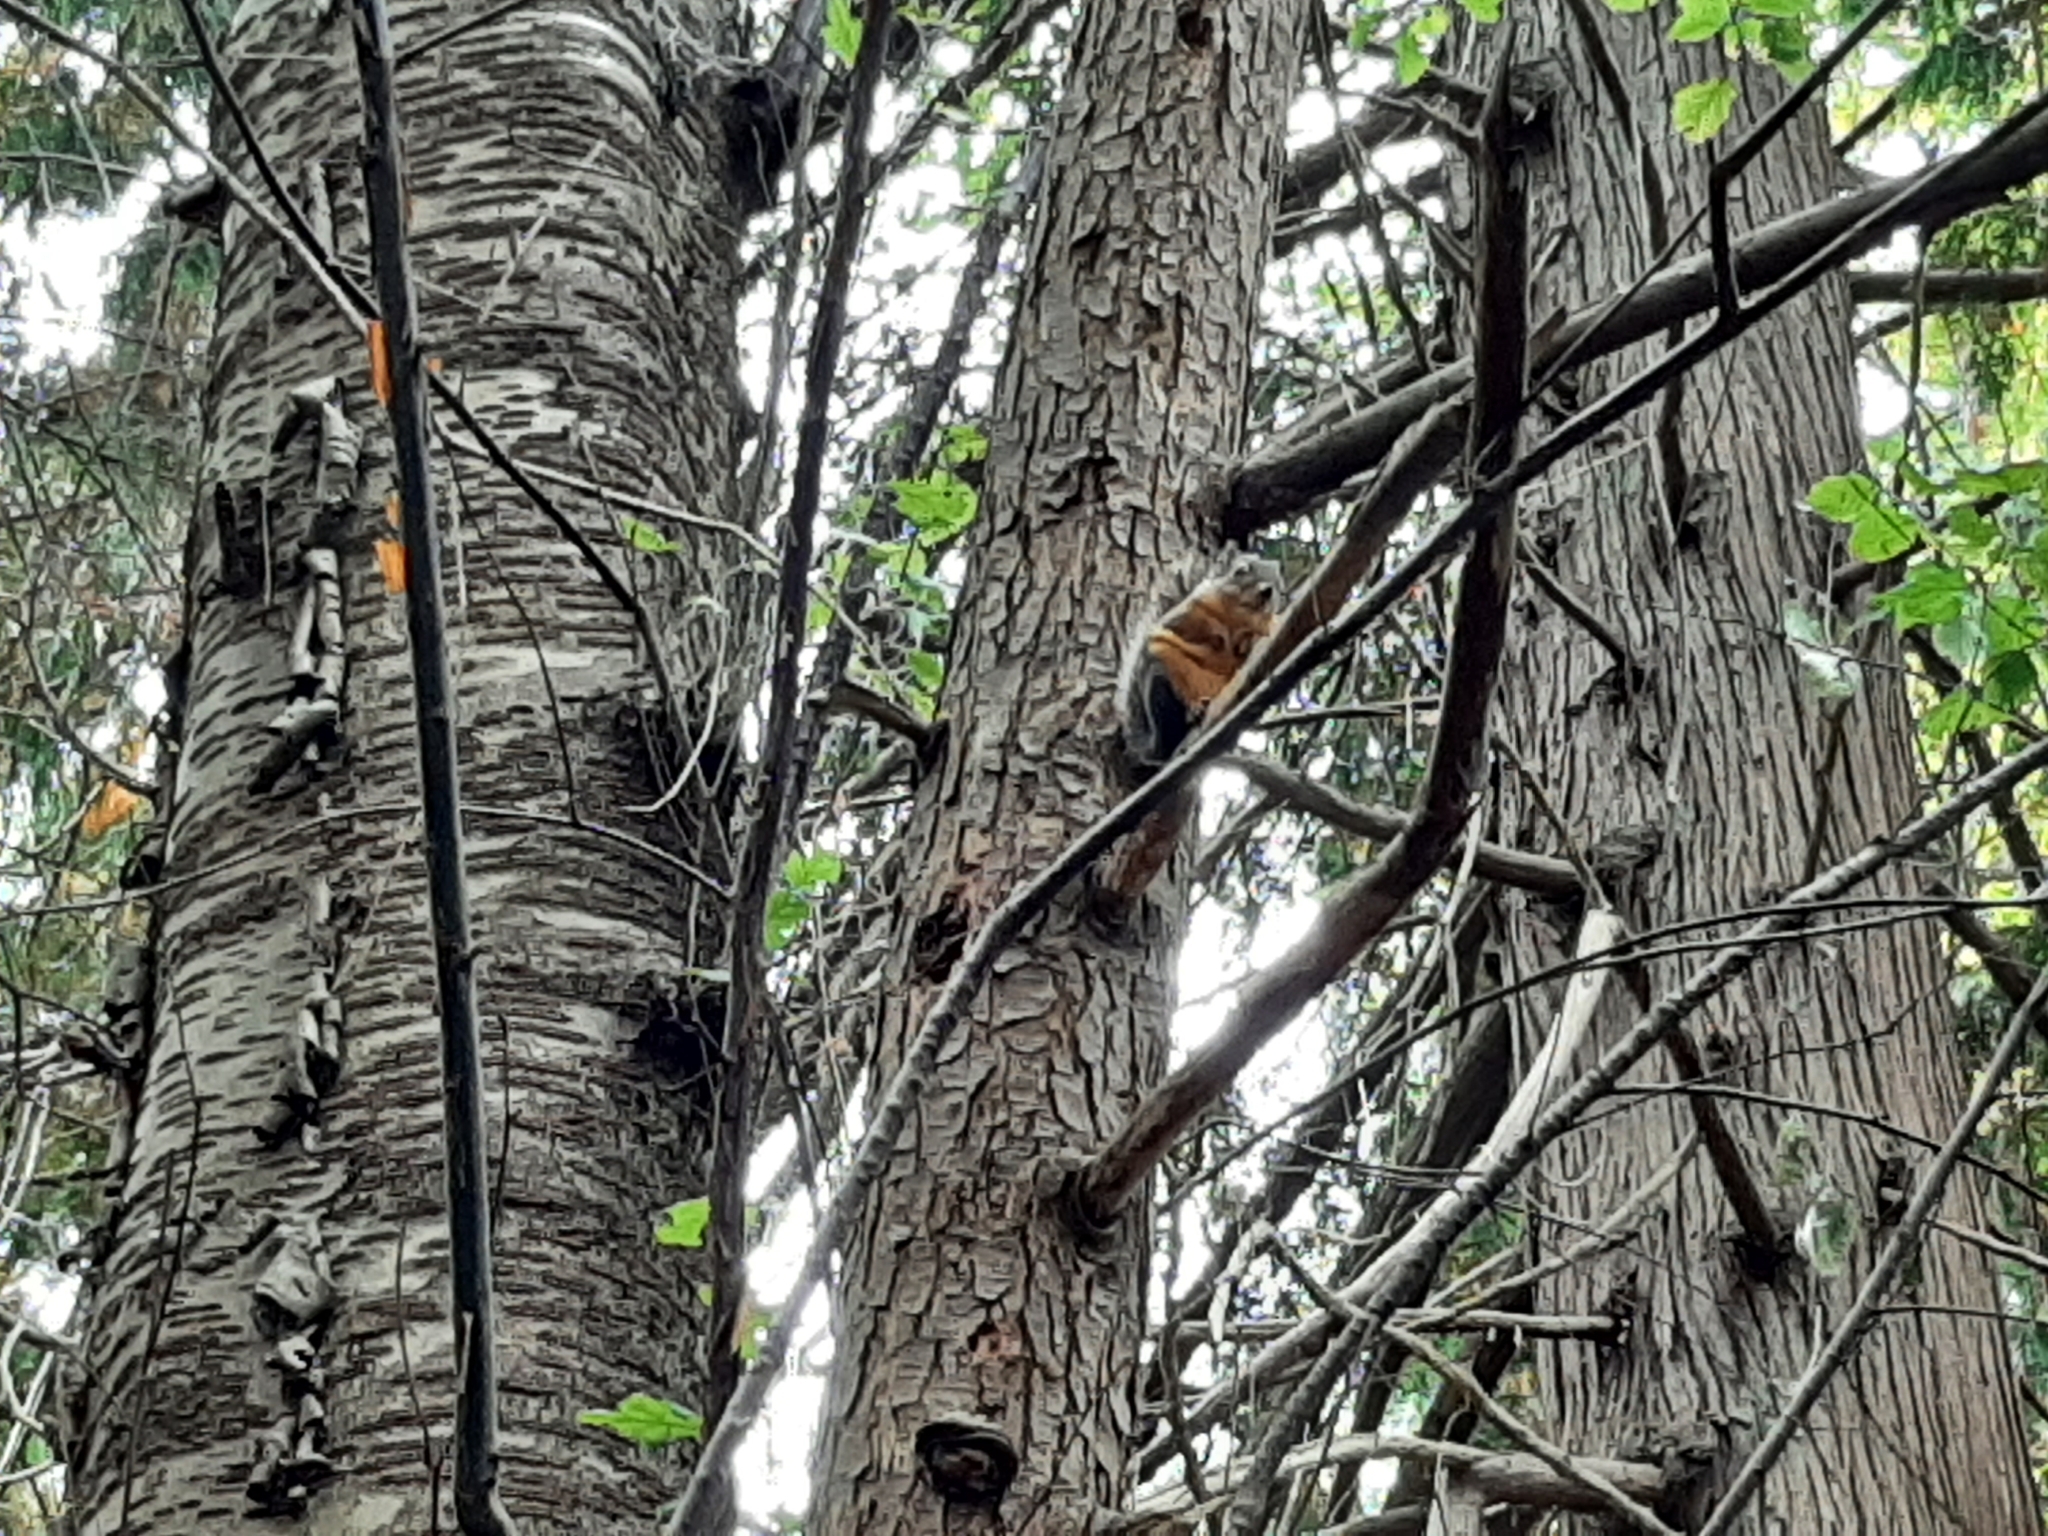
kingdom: Animalia
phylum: Chordata
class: Mammalia
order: Rodentia
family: Sciuridae
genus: Tamiasciurus
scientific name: Tamiasciurus douglasii
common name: Douglas's squirrel
